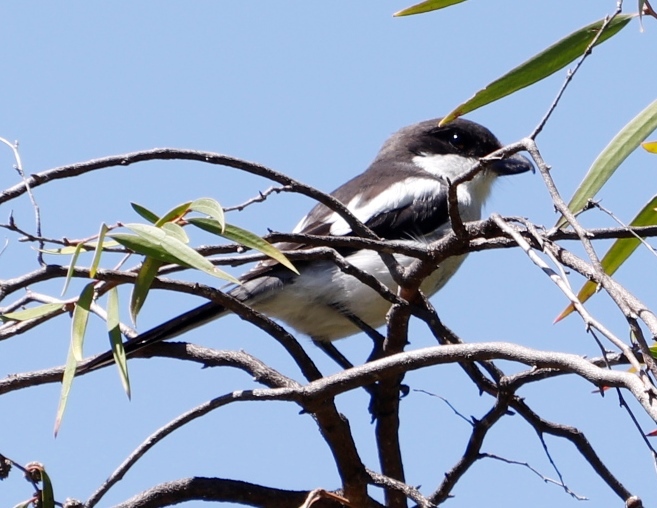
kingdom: Animalia
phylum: Chordata
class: Aves
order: Passeriformes
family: Laniidae
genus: Lanius
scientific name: Lanius collaris
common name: Southern fiscal
